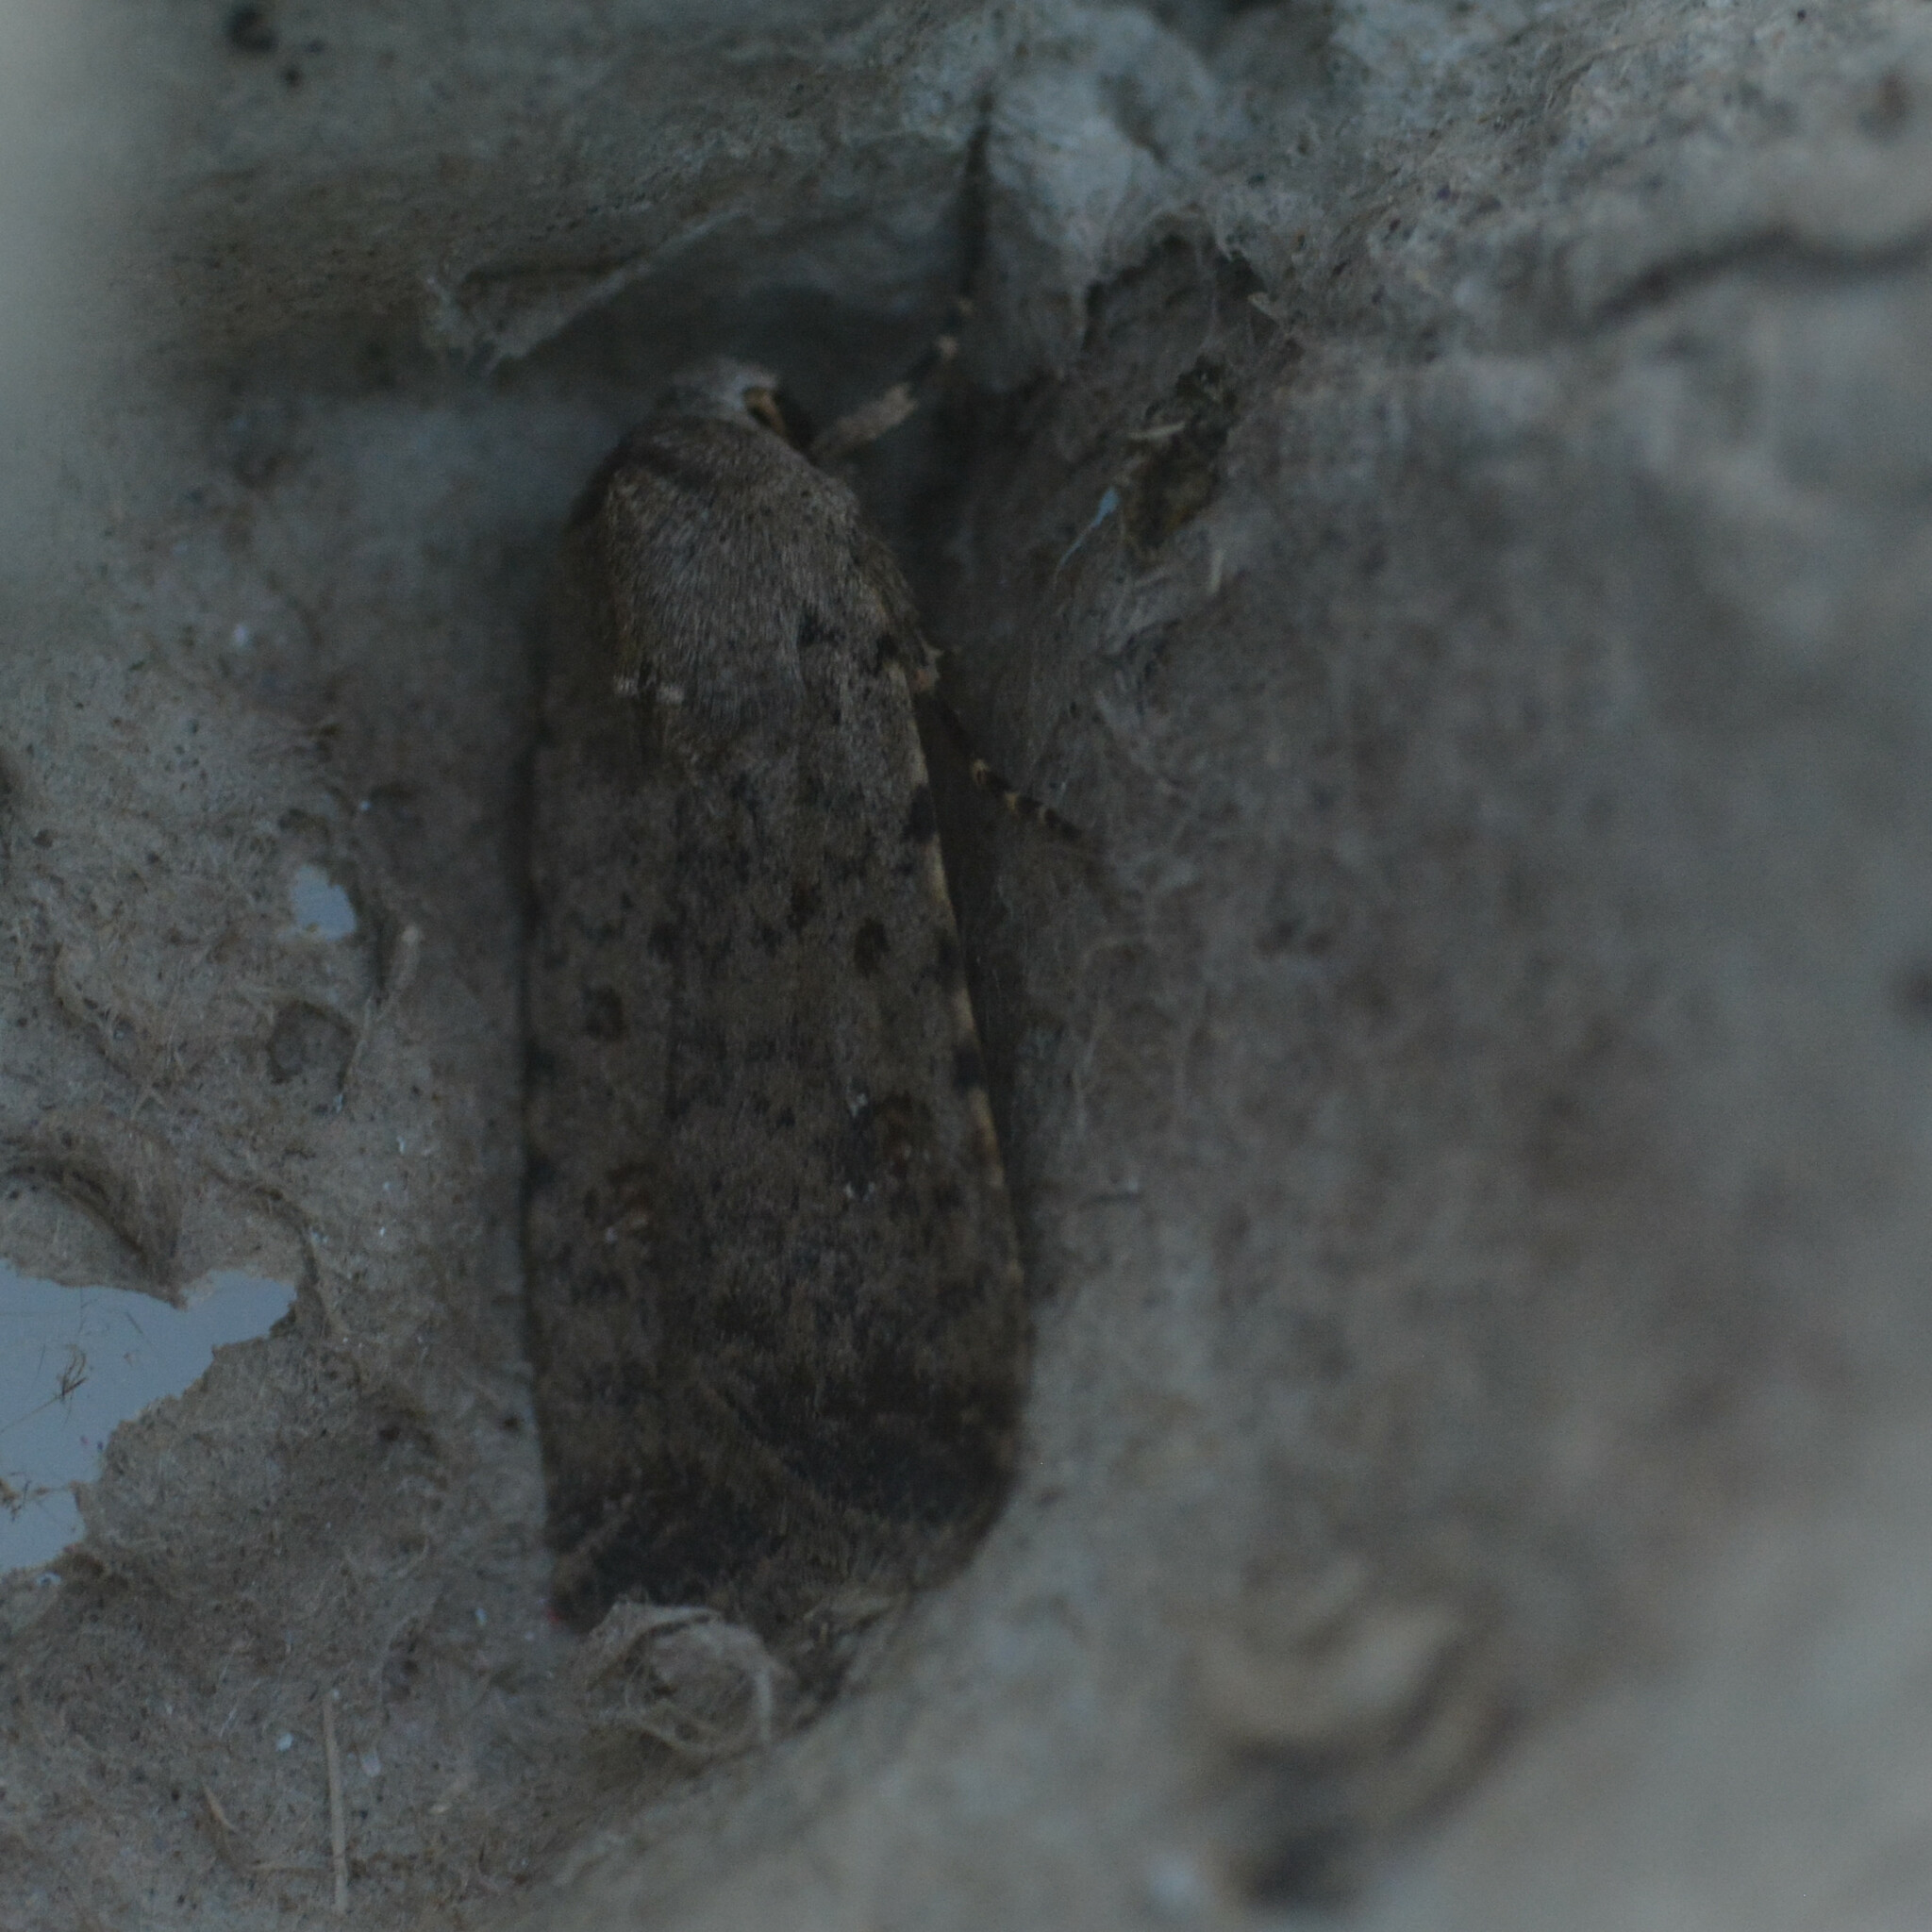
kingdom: Animalia
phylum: Arthropoda
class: Insecta
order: Lepidoptera
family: Noctuidae
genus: Caradrina
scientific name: Caradrina clavipalpis
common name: Pale mottled willow
